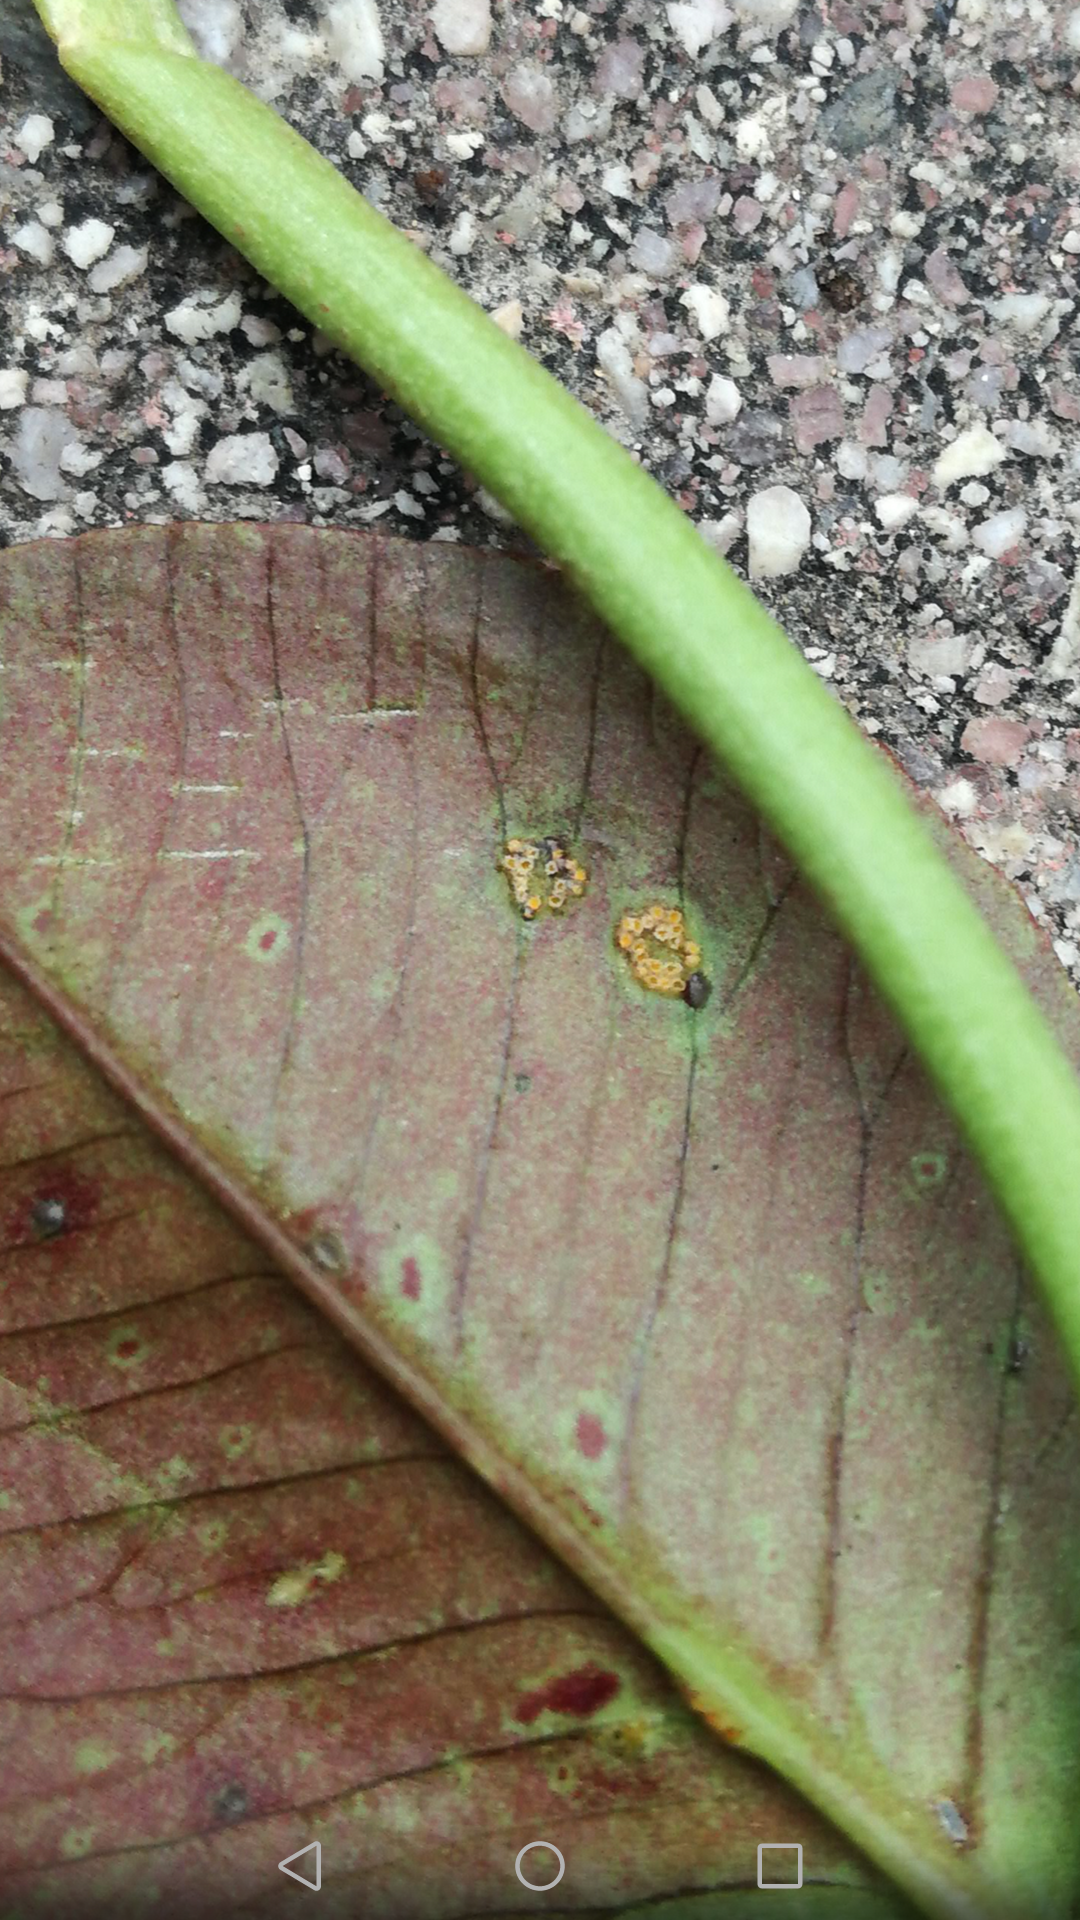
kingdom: Fungi
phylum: Basidiomycota
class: Pucciniomycetes
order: Pucciniales
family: Pucciniaceae
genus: Uromyces
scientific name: Uromyces trifolii
